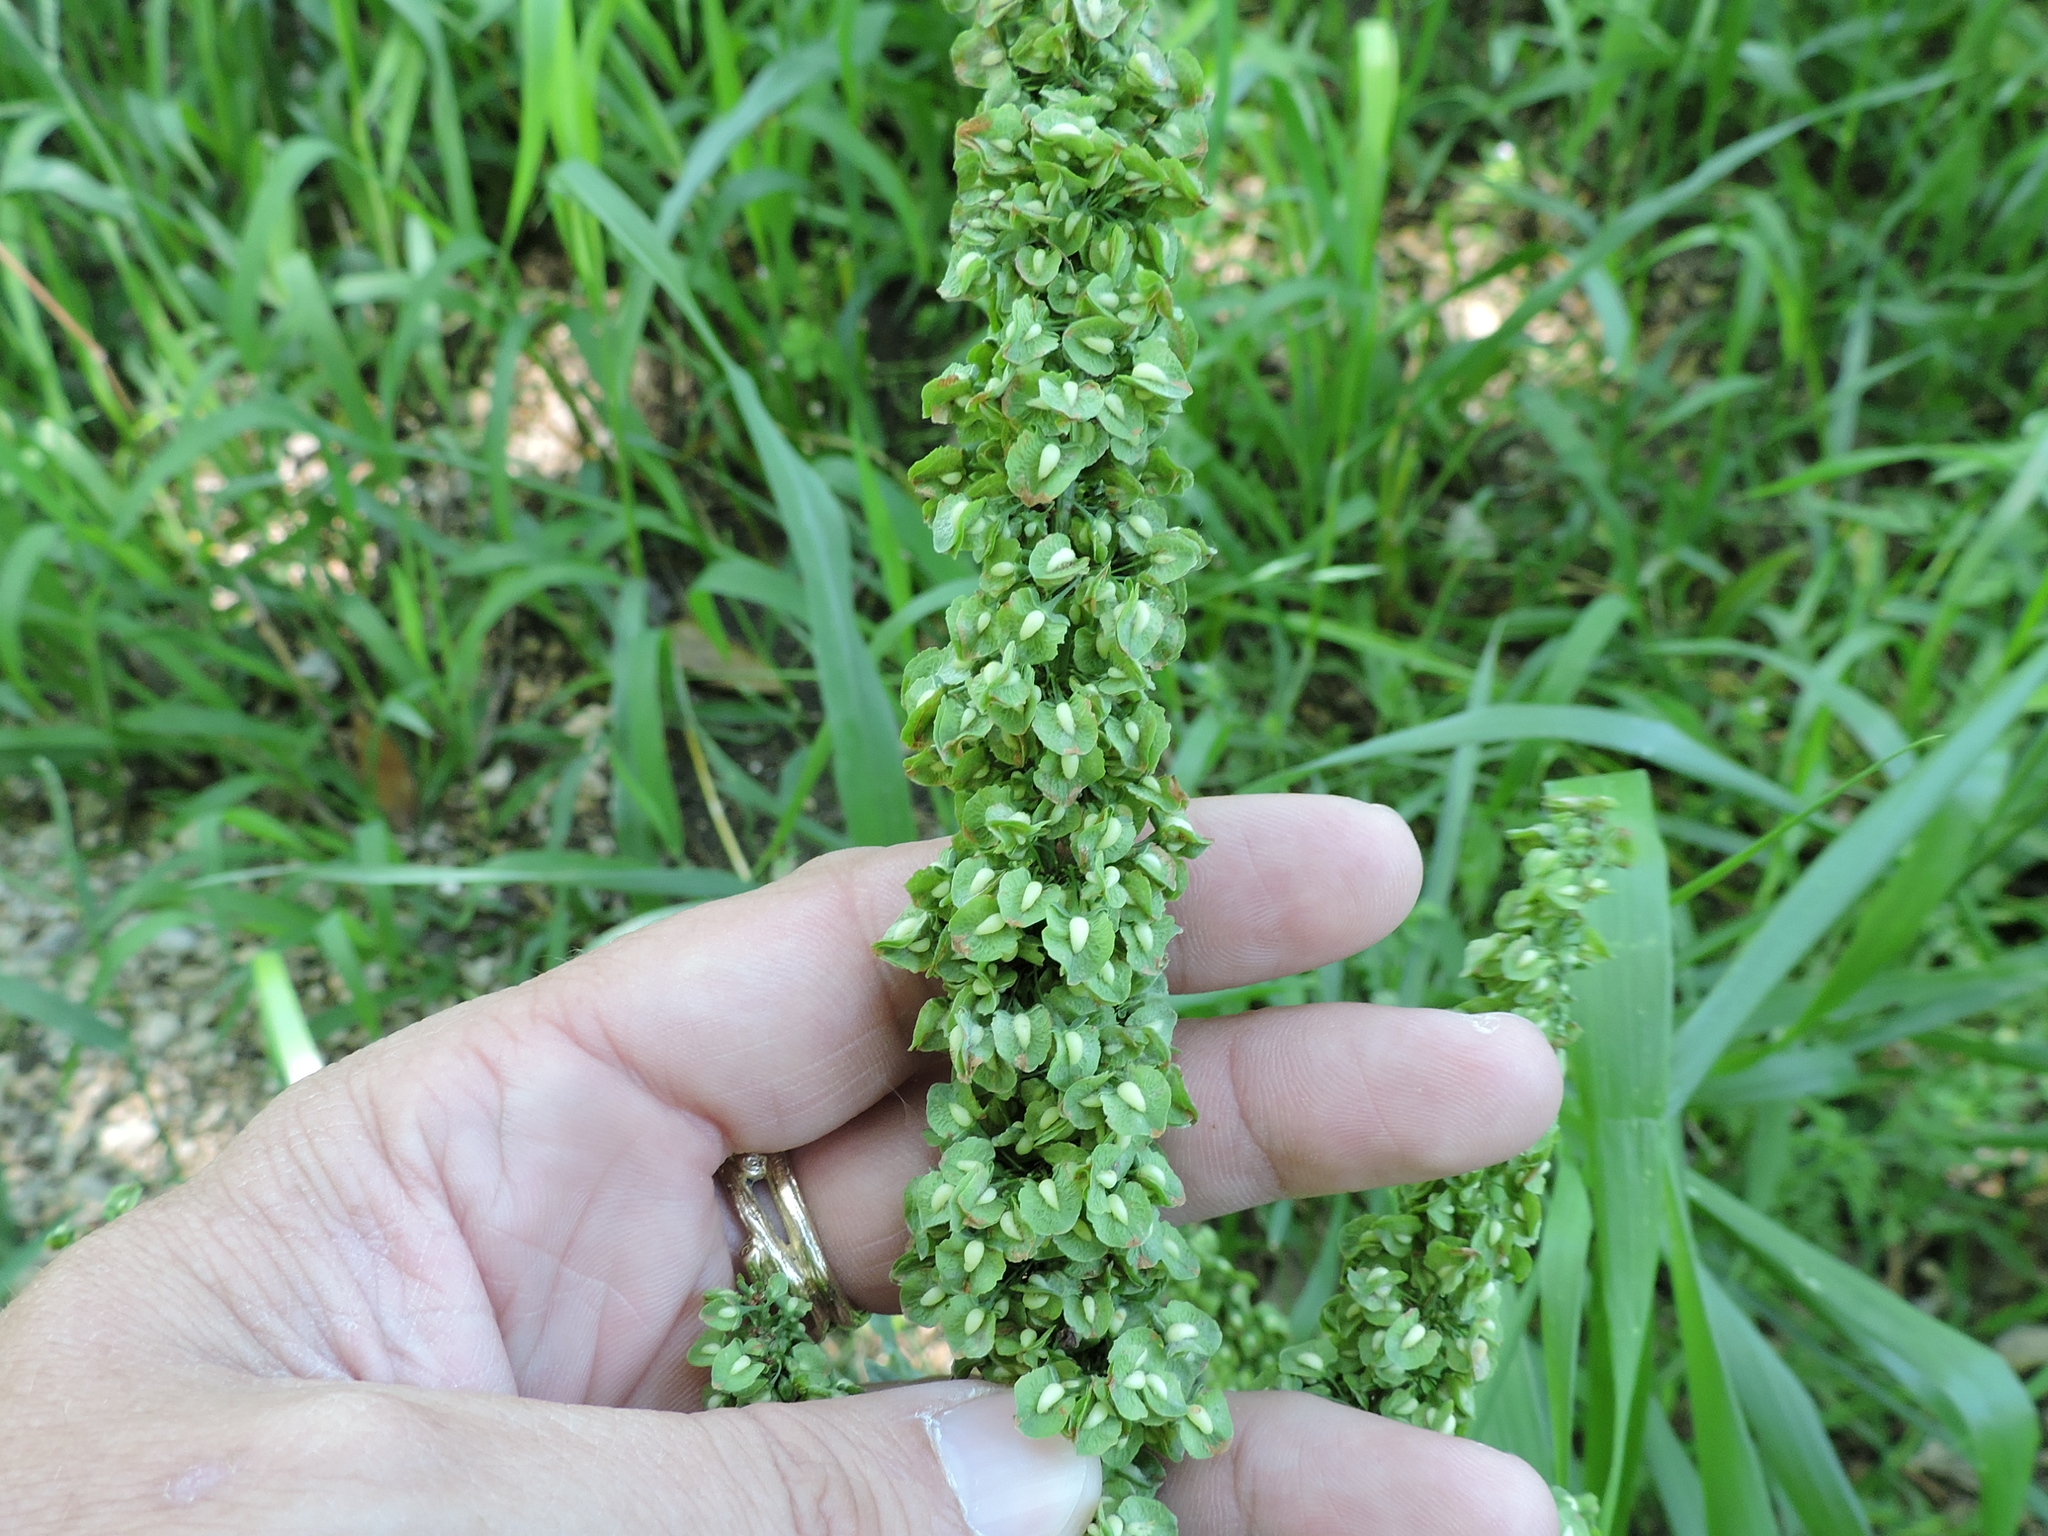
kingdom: Plantae
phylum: Tracheophyta
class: Magnoliopsida
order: Caryophyllales
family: Polygonaceae
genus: Rumex
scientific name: Rumex crispus
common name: Curled dock
